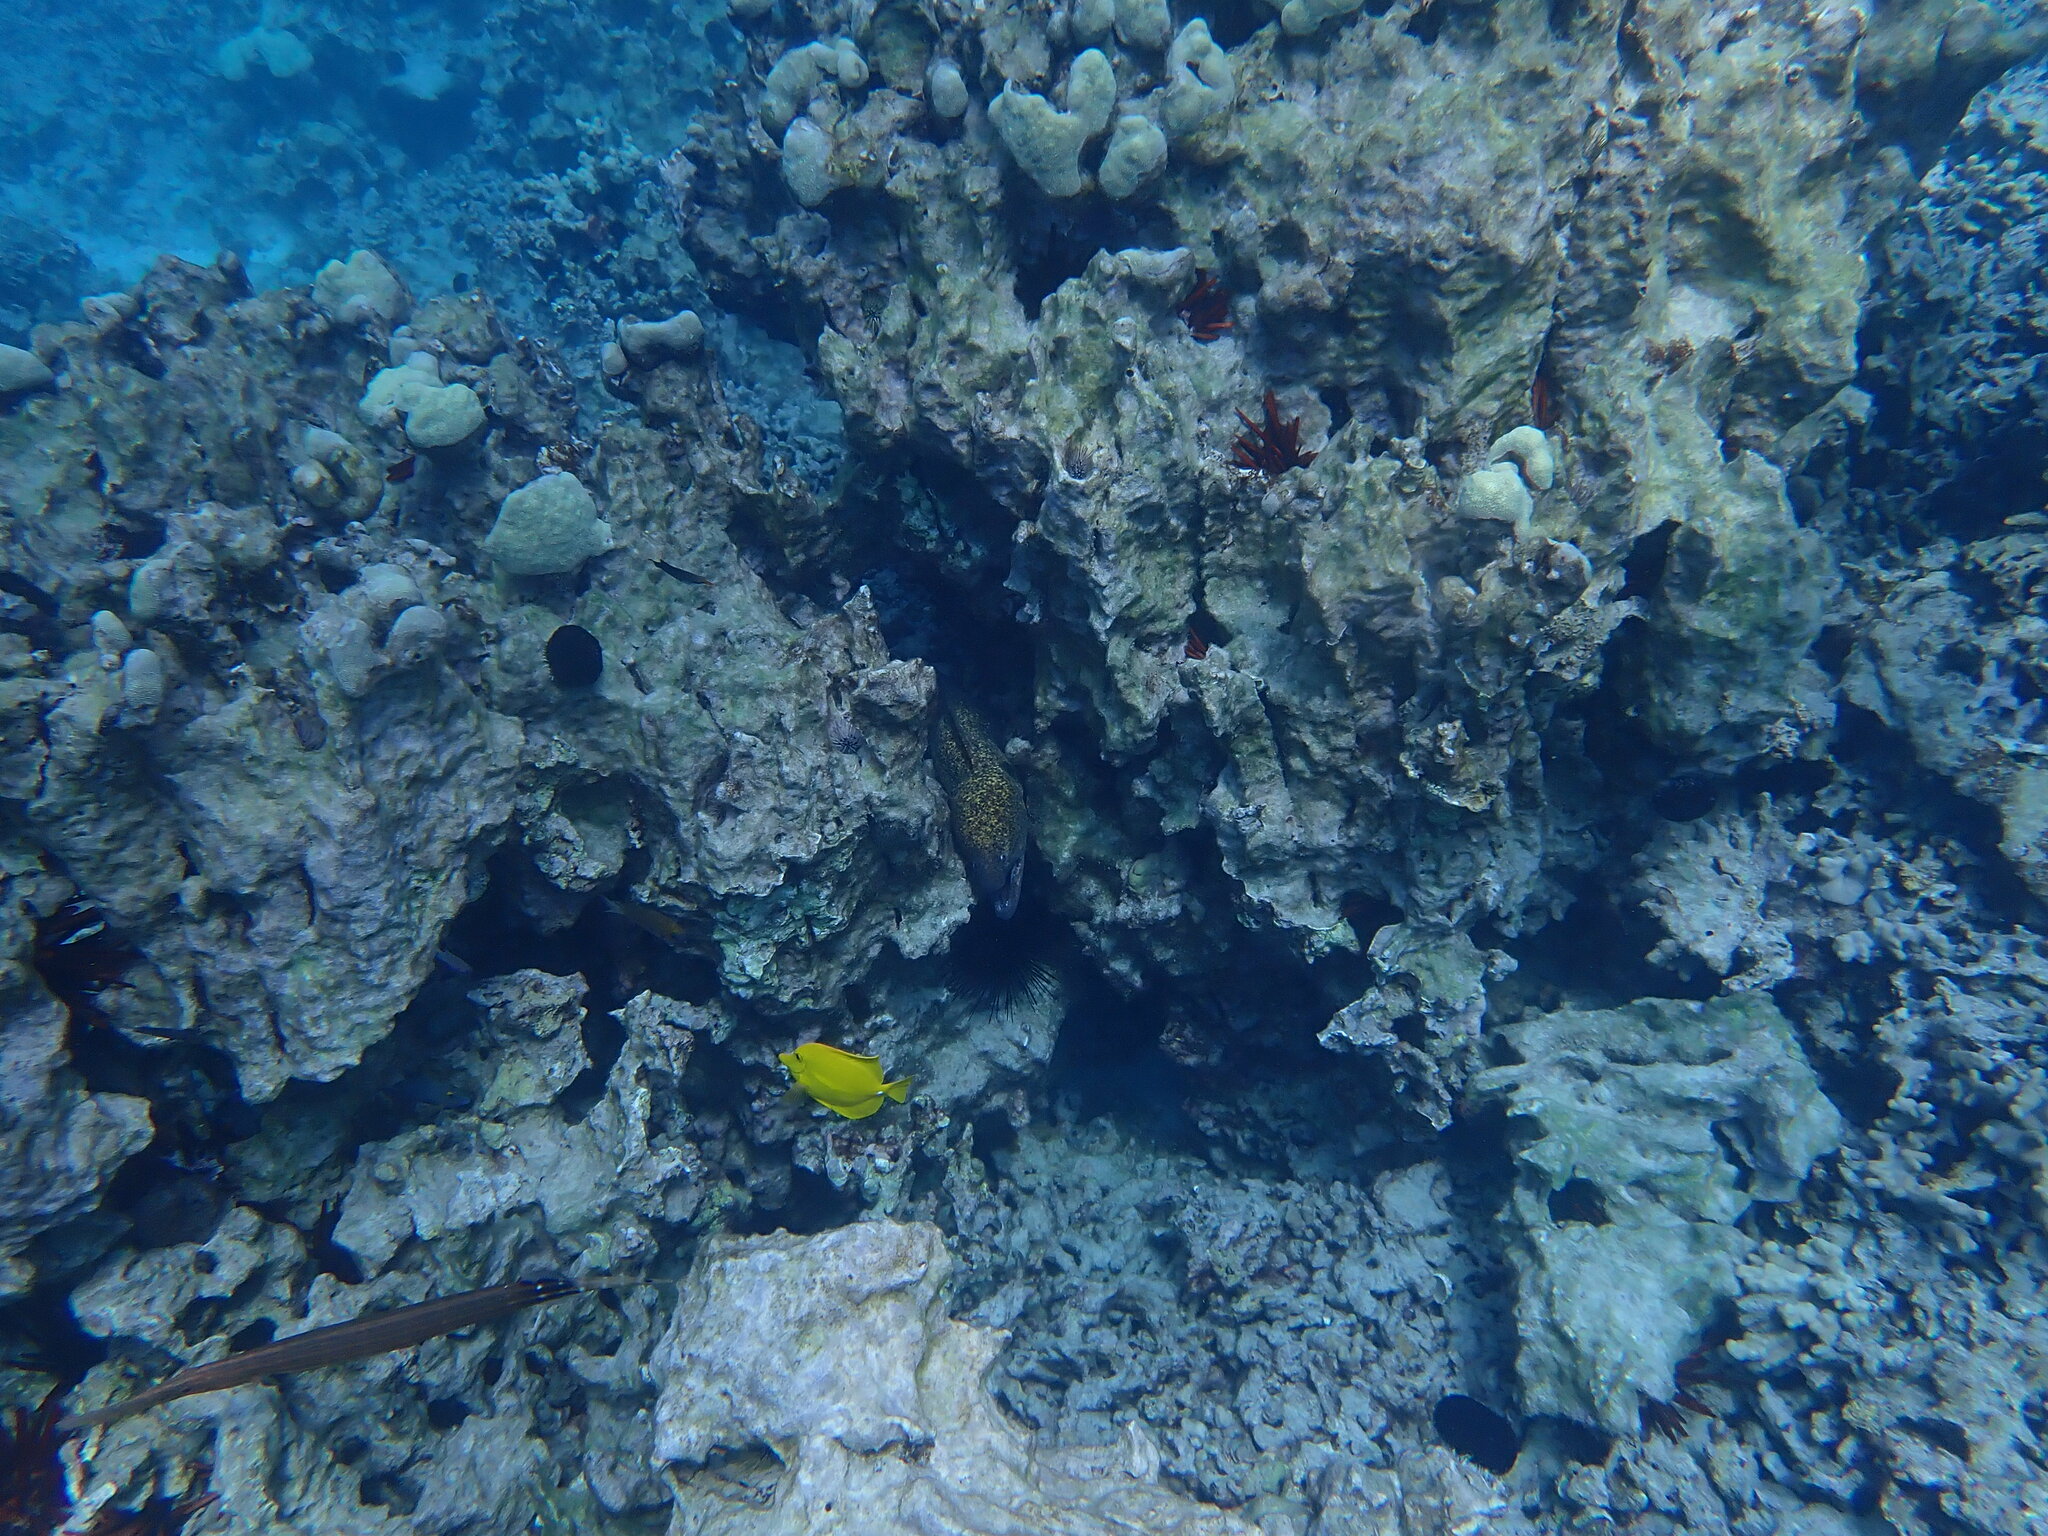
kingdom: Animalia
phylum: Chordata
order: Anguilliformes
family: Muraenidae
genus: Gymnothorax
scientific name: Gymnothorax flavimarginatus
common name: Yellow-edged moray
